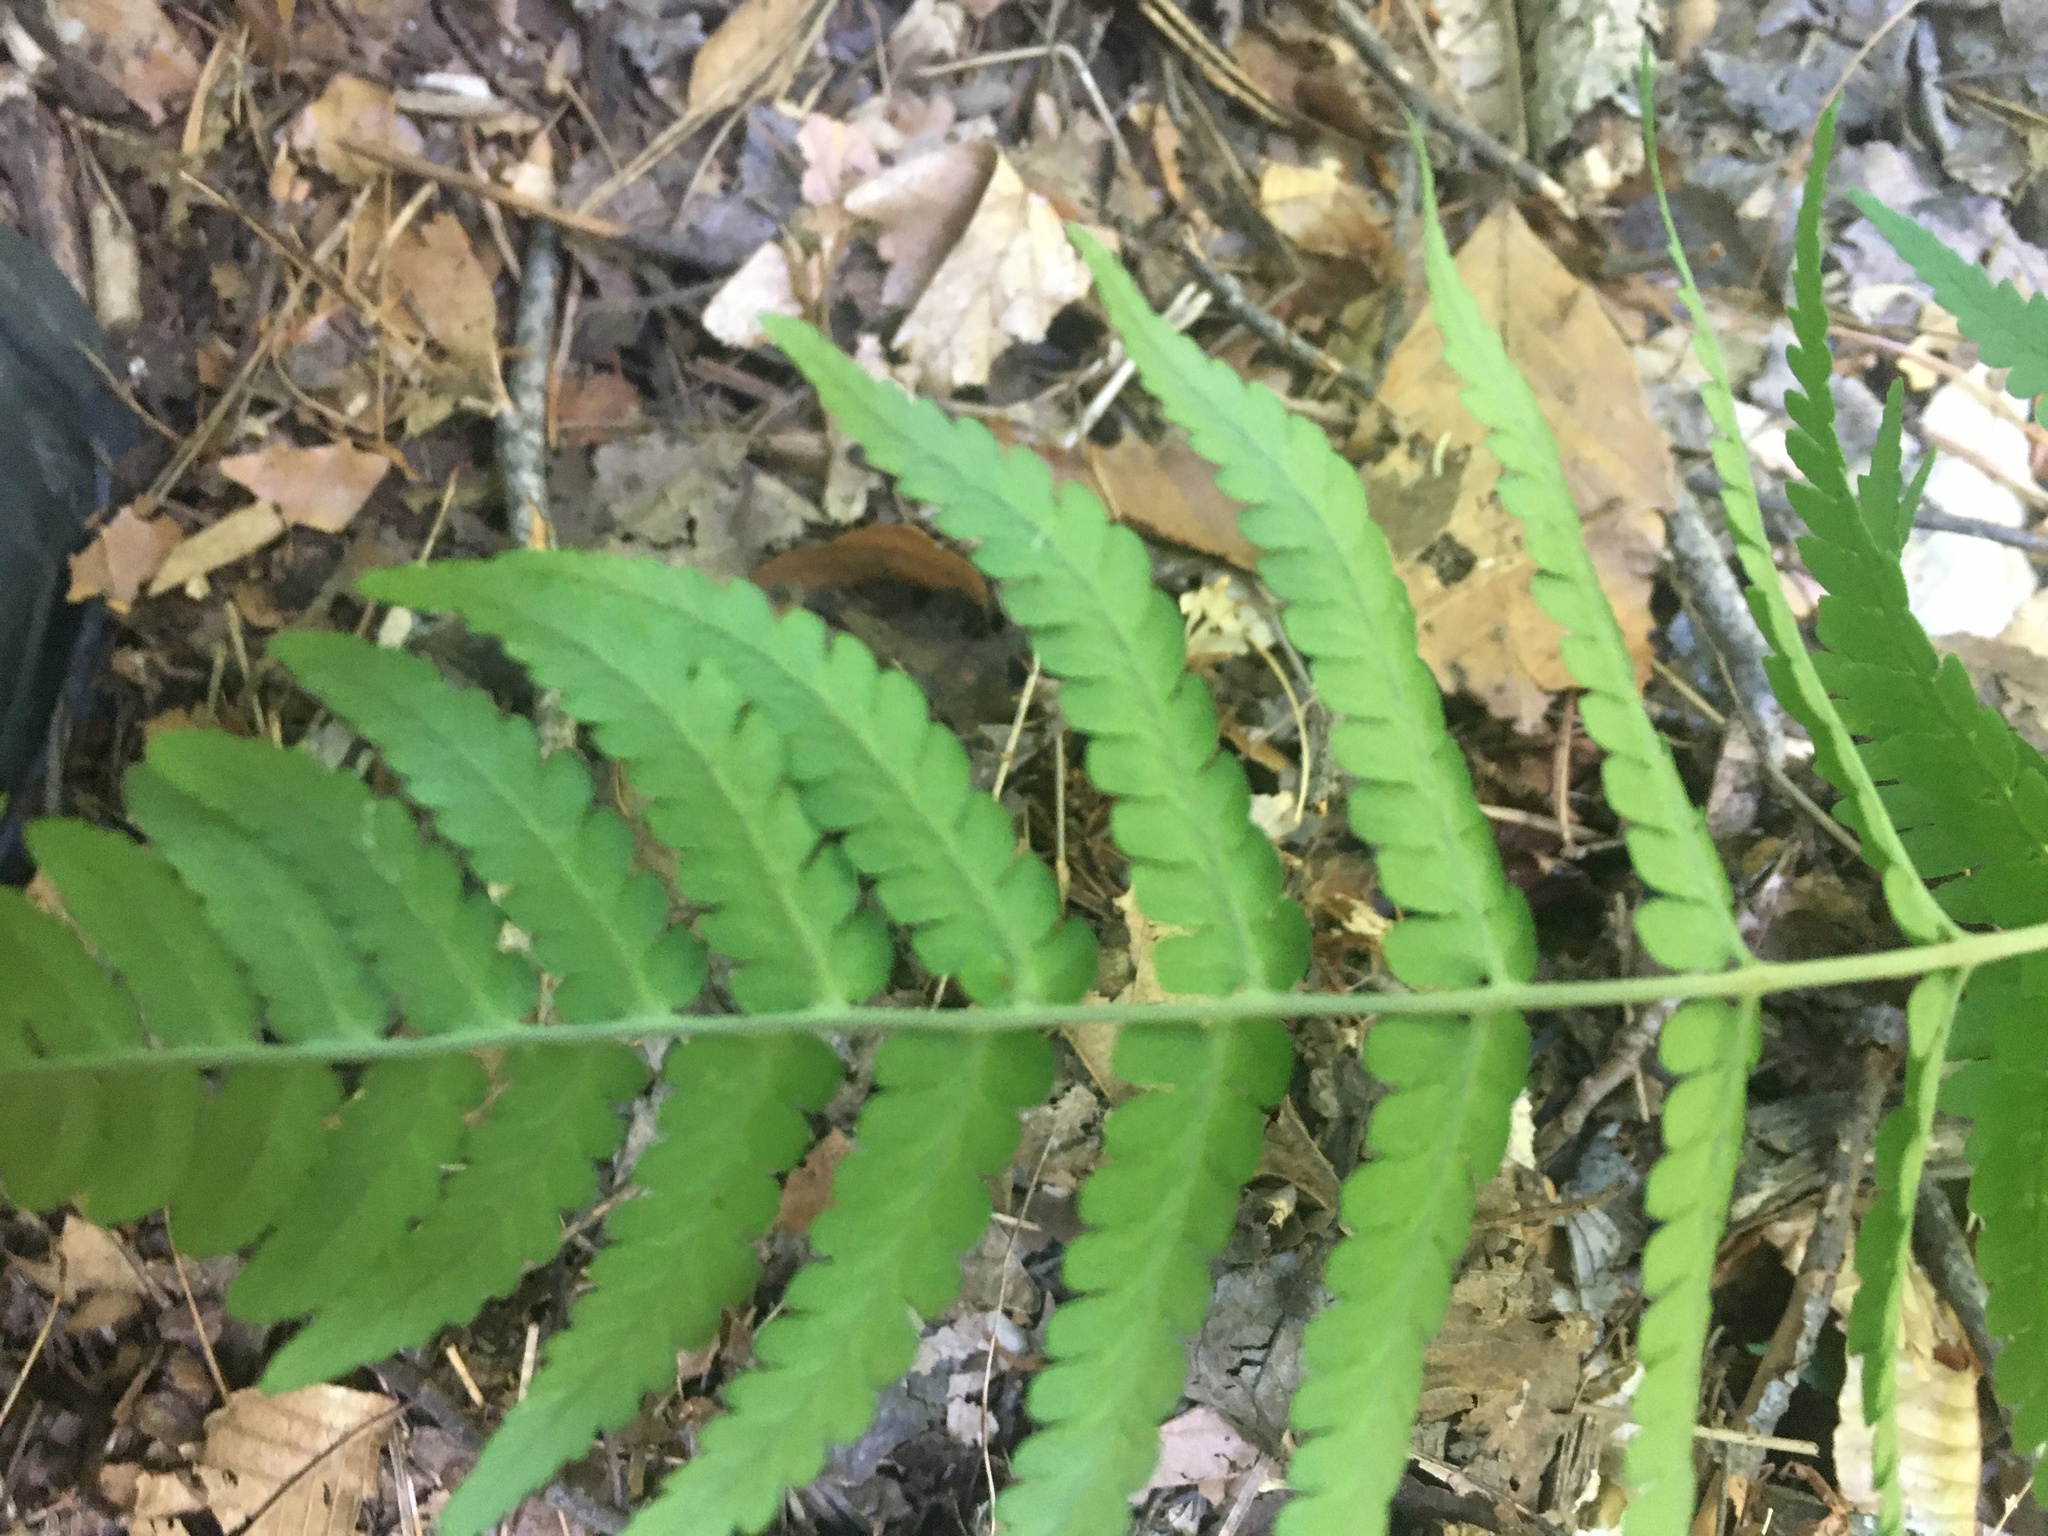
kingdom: Plantae
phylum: Tracheophyta
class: Polypodiopsida
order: Polypodiales
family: Dryopteridaceae
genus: Dryopteris
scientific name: Dryopteris marginalis
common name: Marginal wood fern
